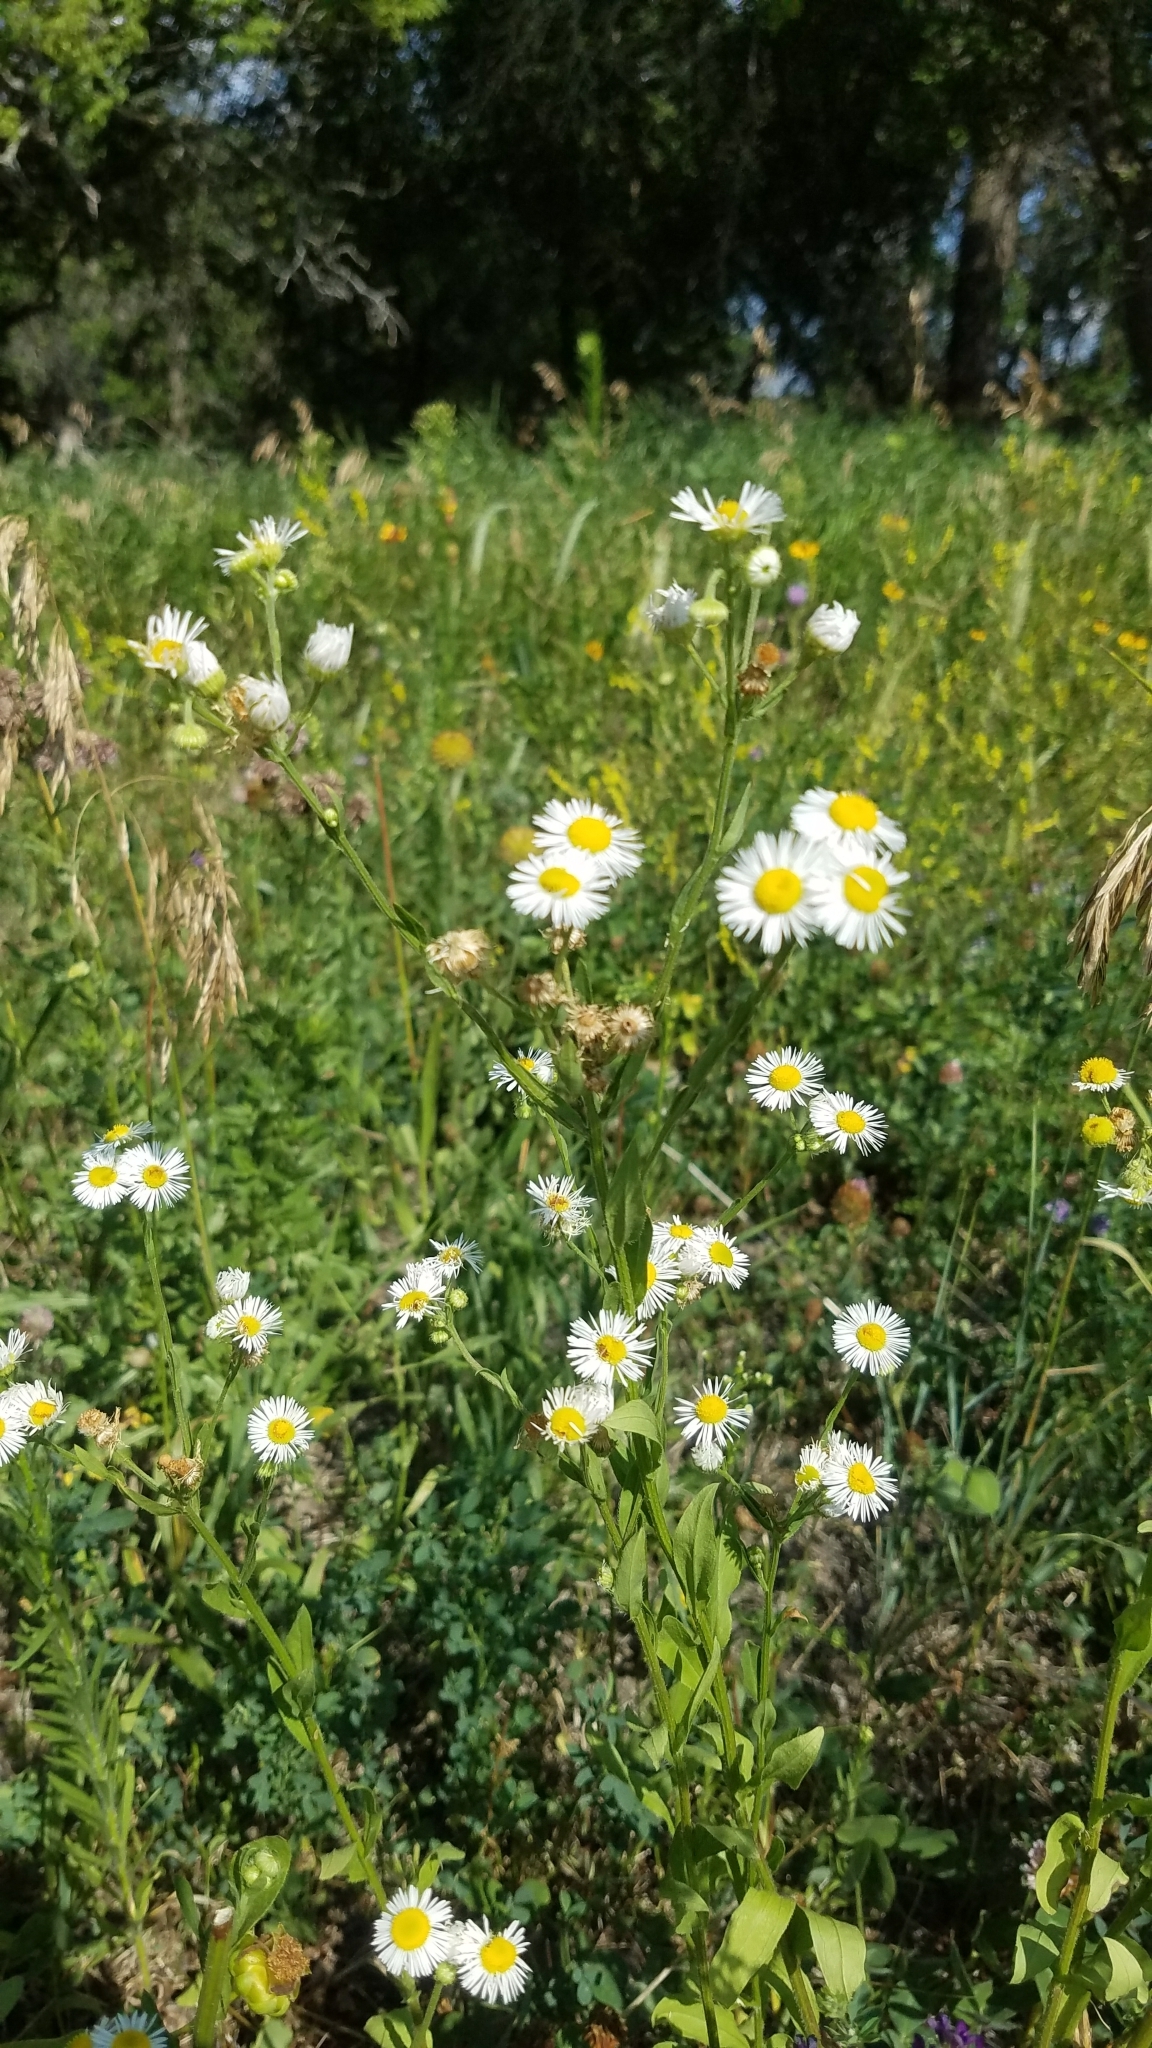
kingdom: Plantae
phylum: Tracheophyta
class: Magnoliopsida
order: Asterales
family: Asteraceae
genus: Erigeron
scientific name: Erigeron strigosus
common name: Common eastern fleabane
